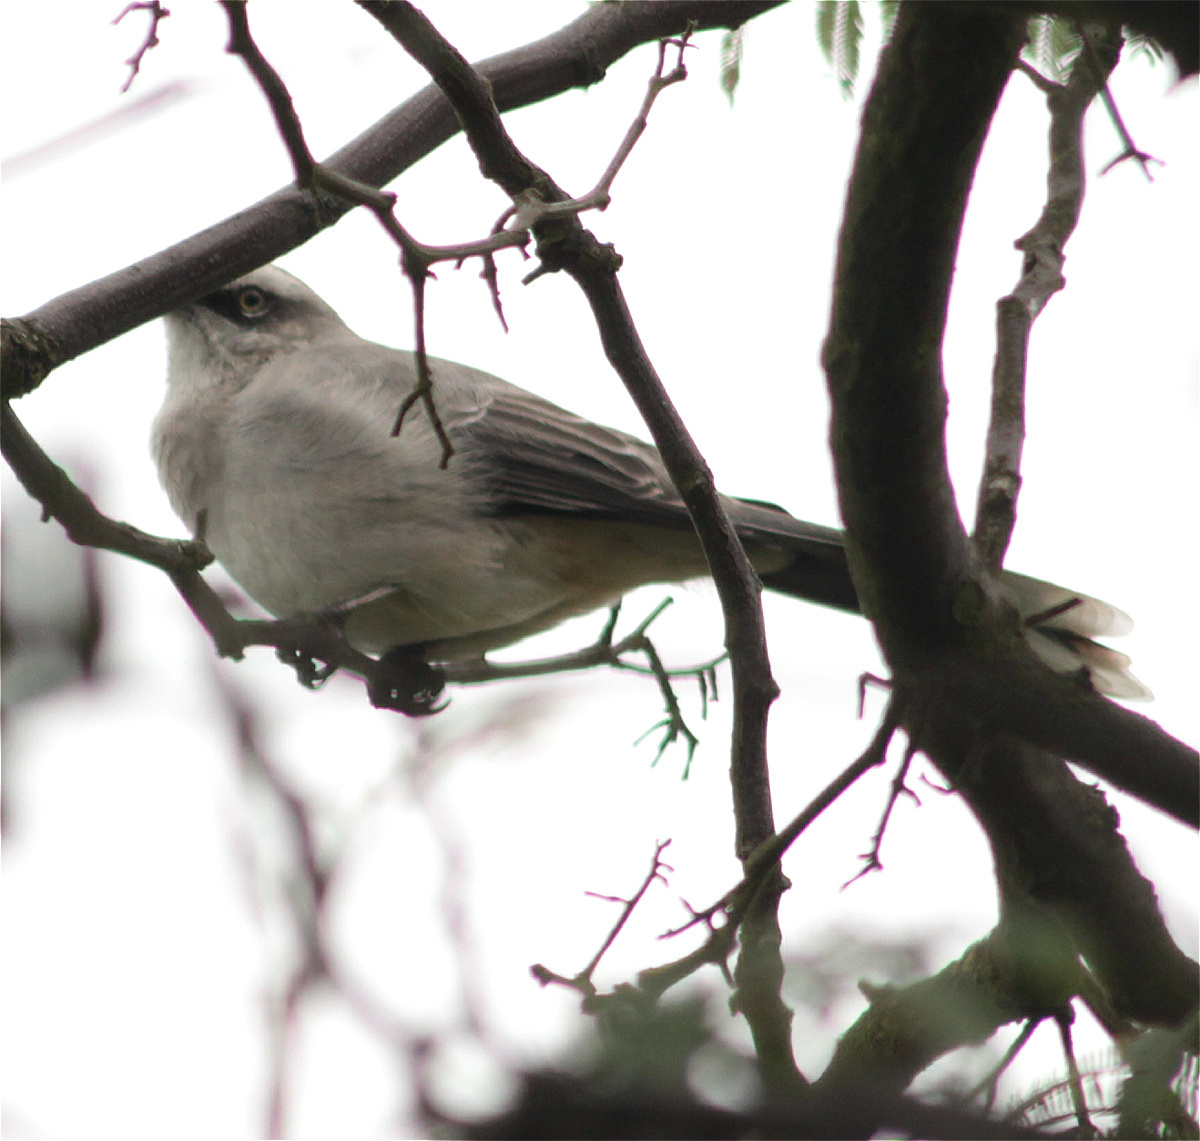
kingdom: Animalia
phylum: Chordata
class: Aves
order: Passeriformes
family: Mimidae
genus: Mimus
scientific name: Mimus gilvus
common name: Tropical mockingbird
